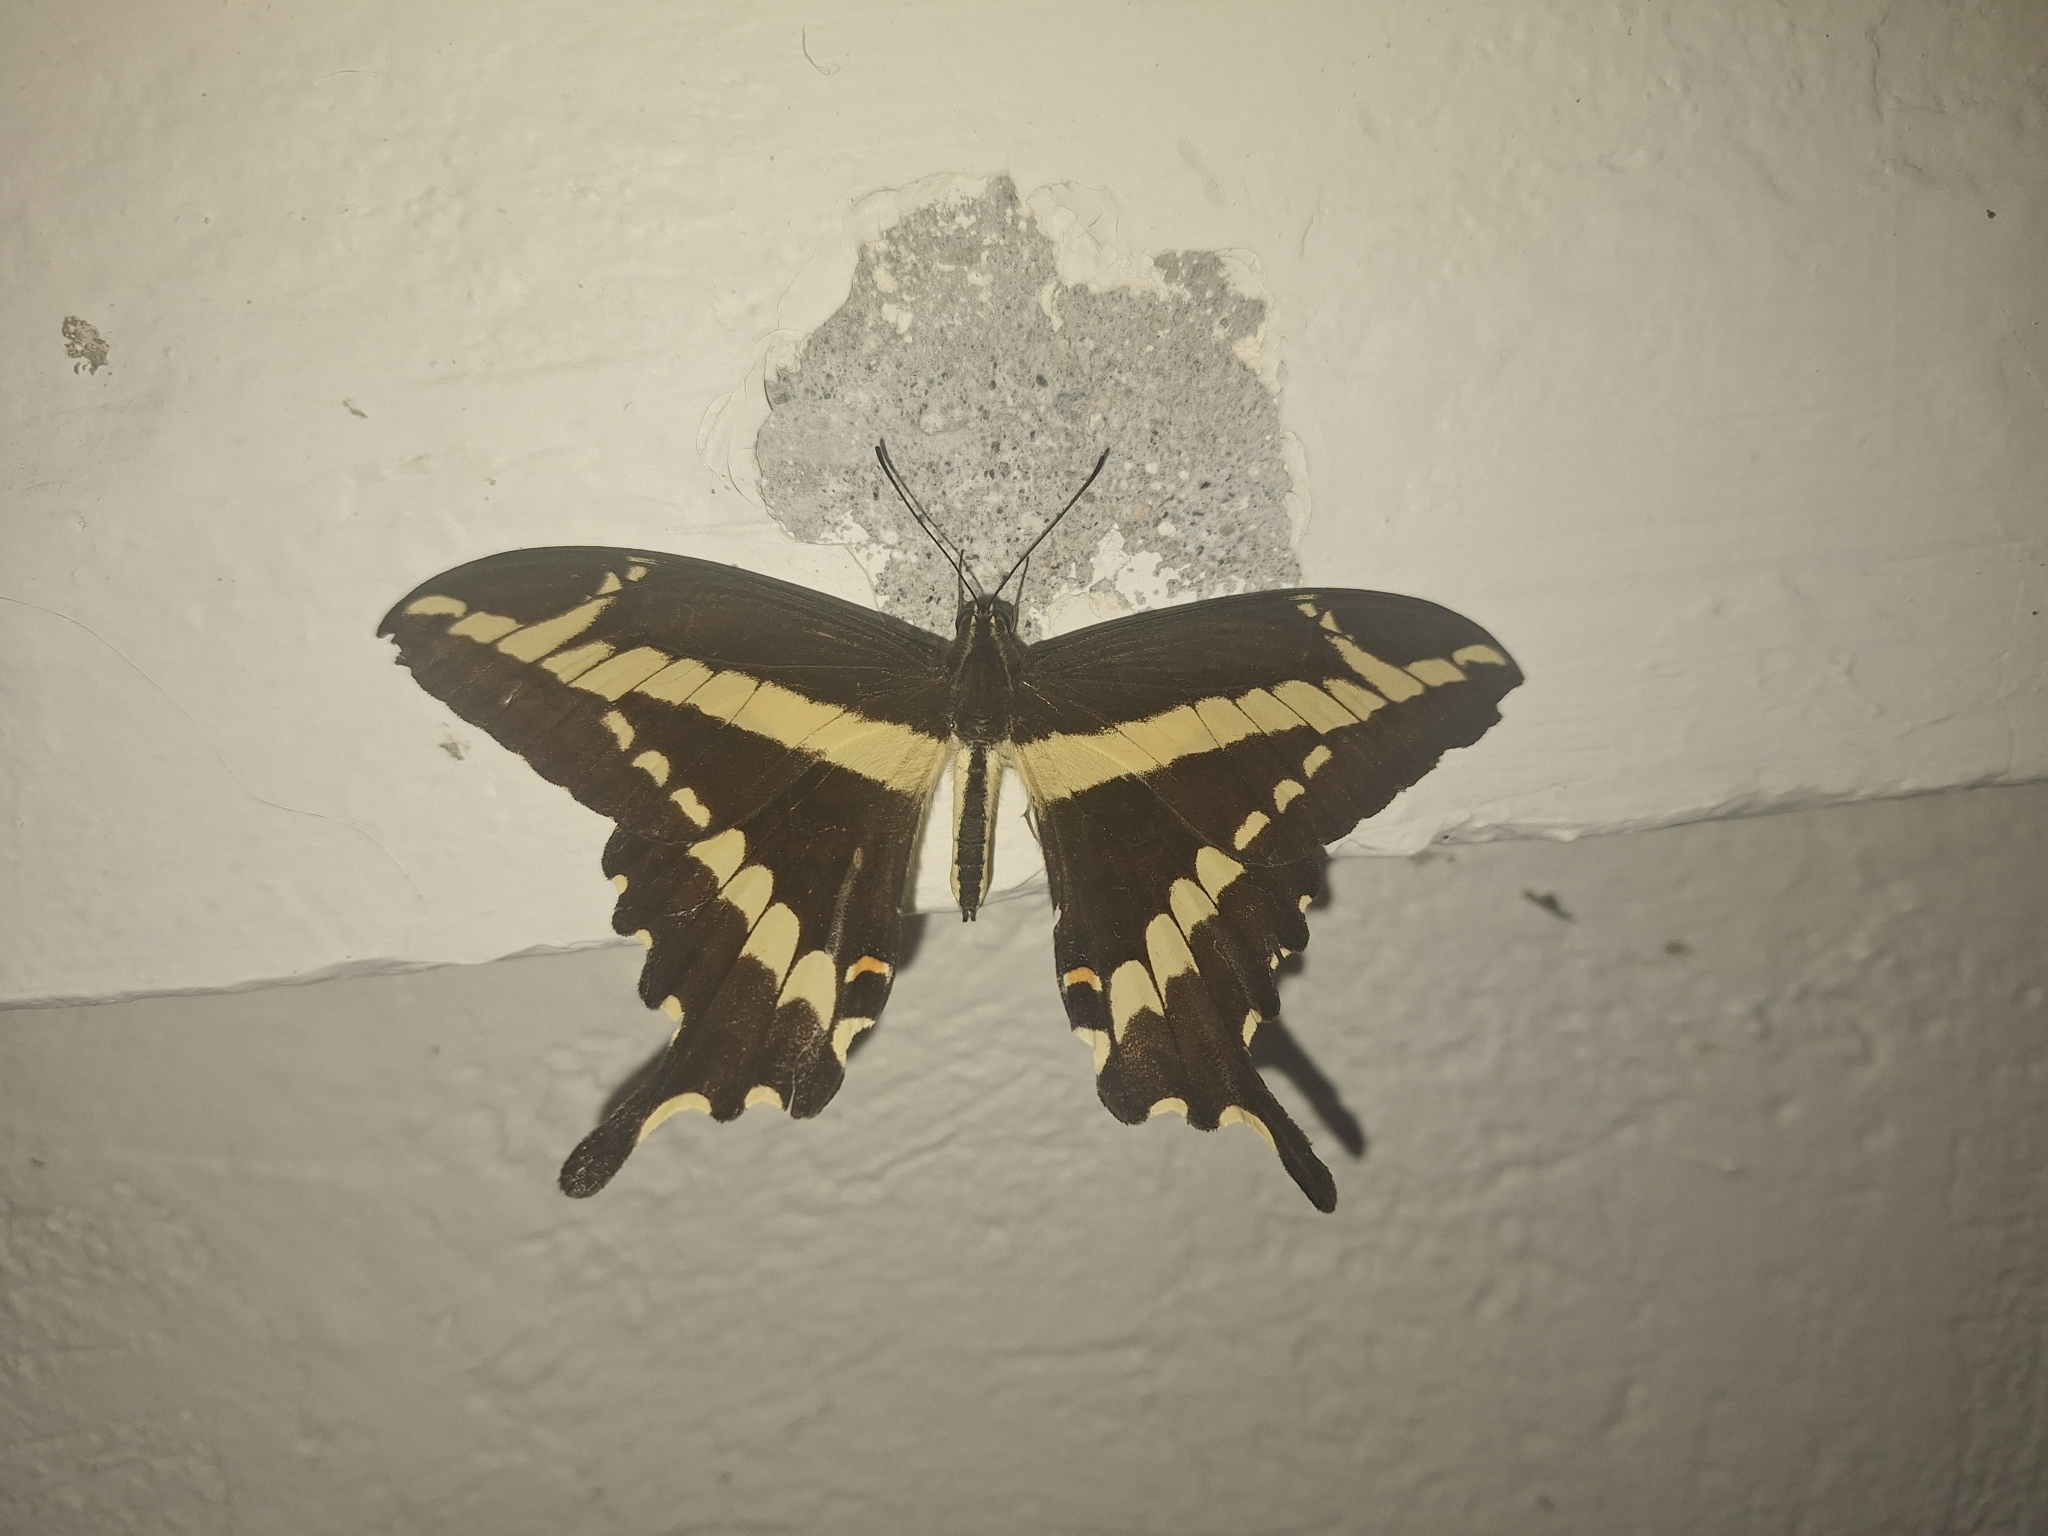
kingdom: Animalia
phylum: Arthropoda
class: Insecta
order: Lepidoptera
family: Papilionidae
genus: Heraclides
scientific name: Heraclides pallas
